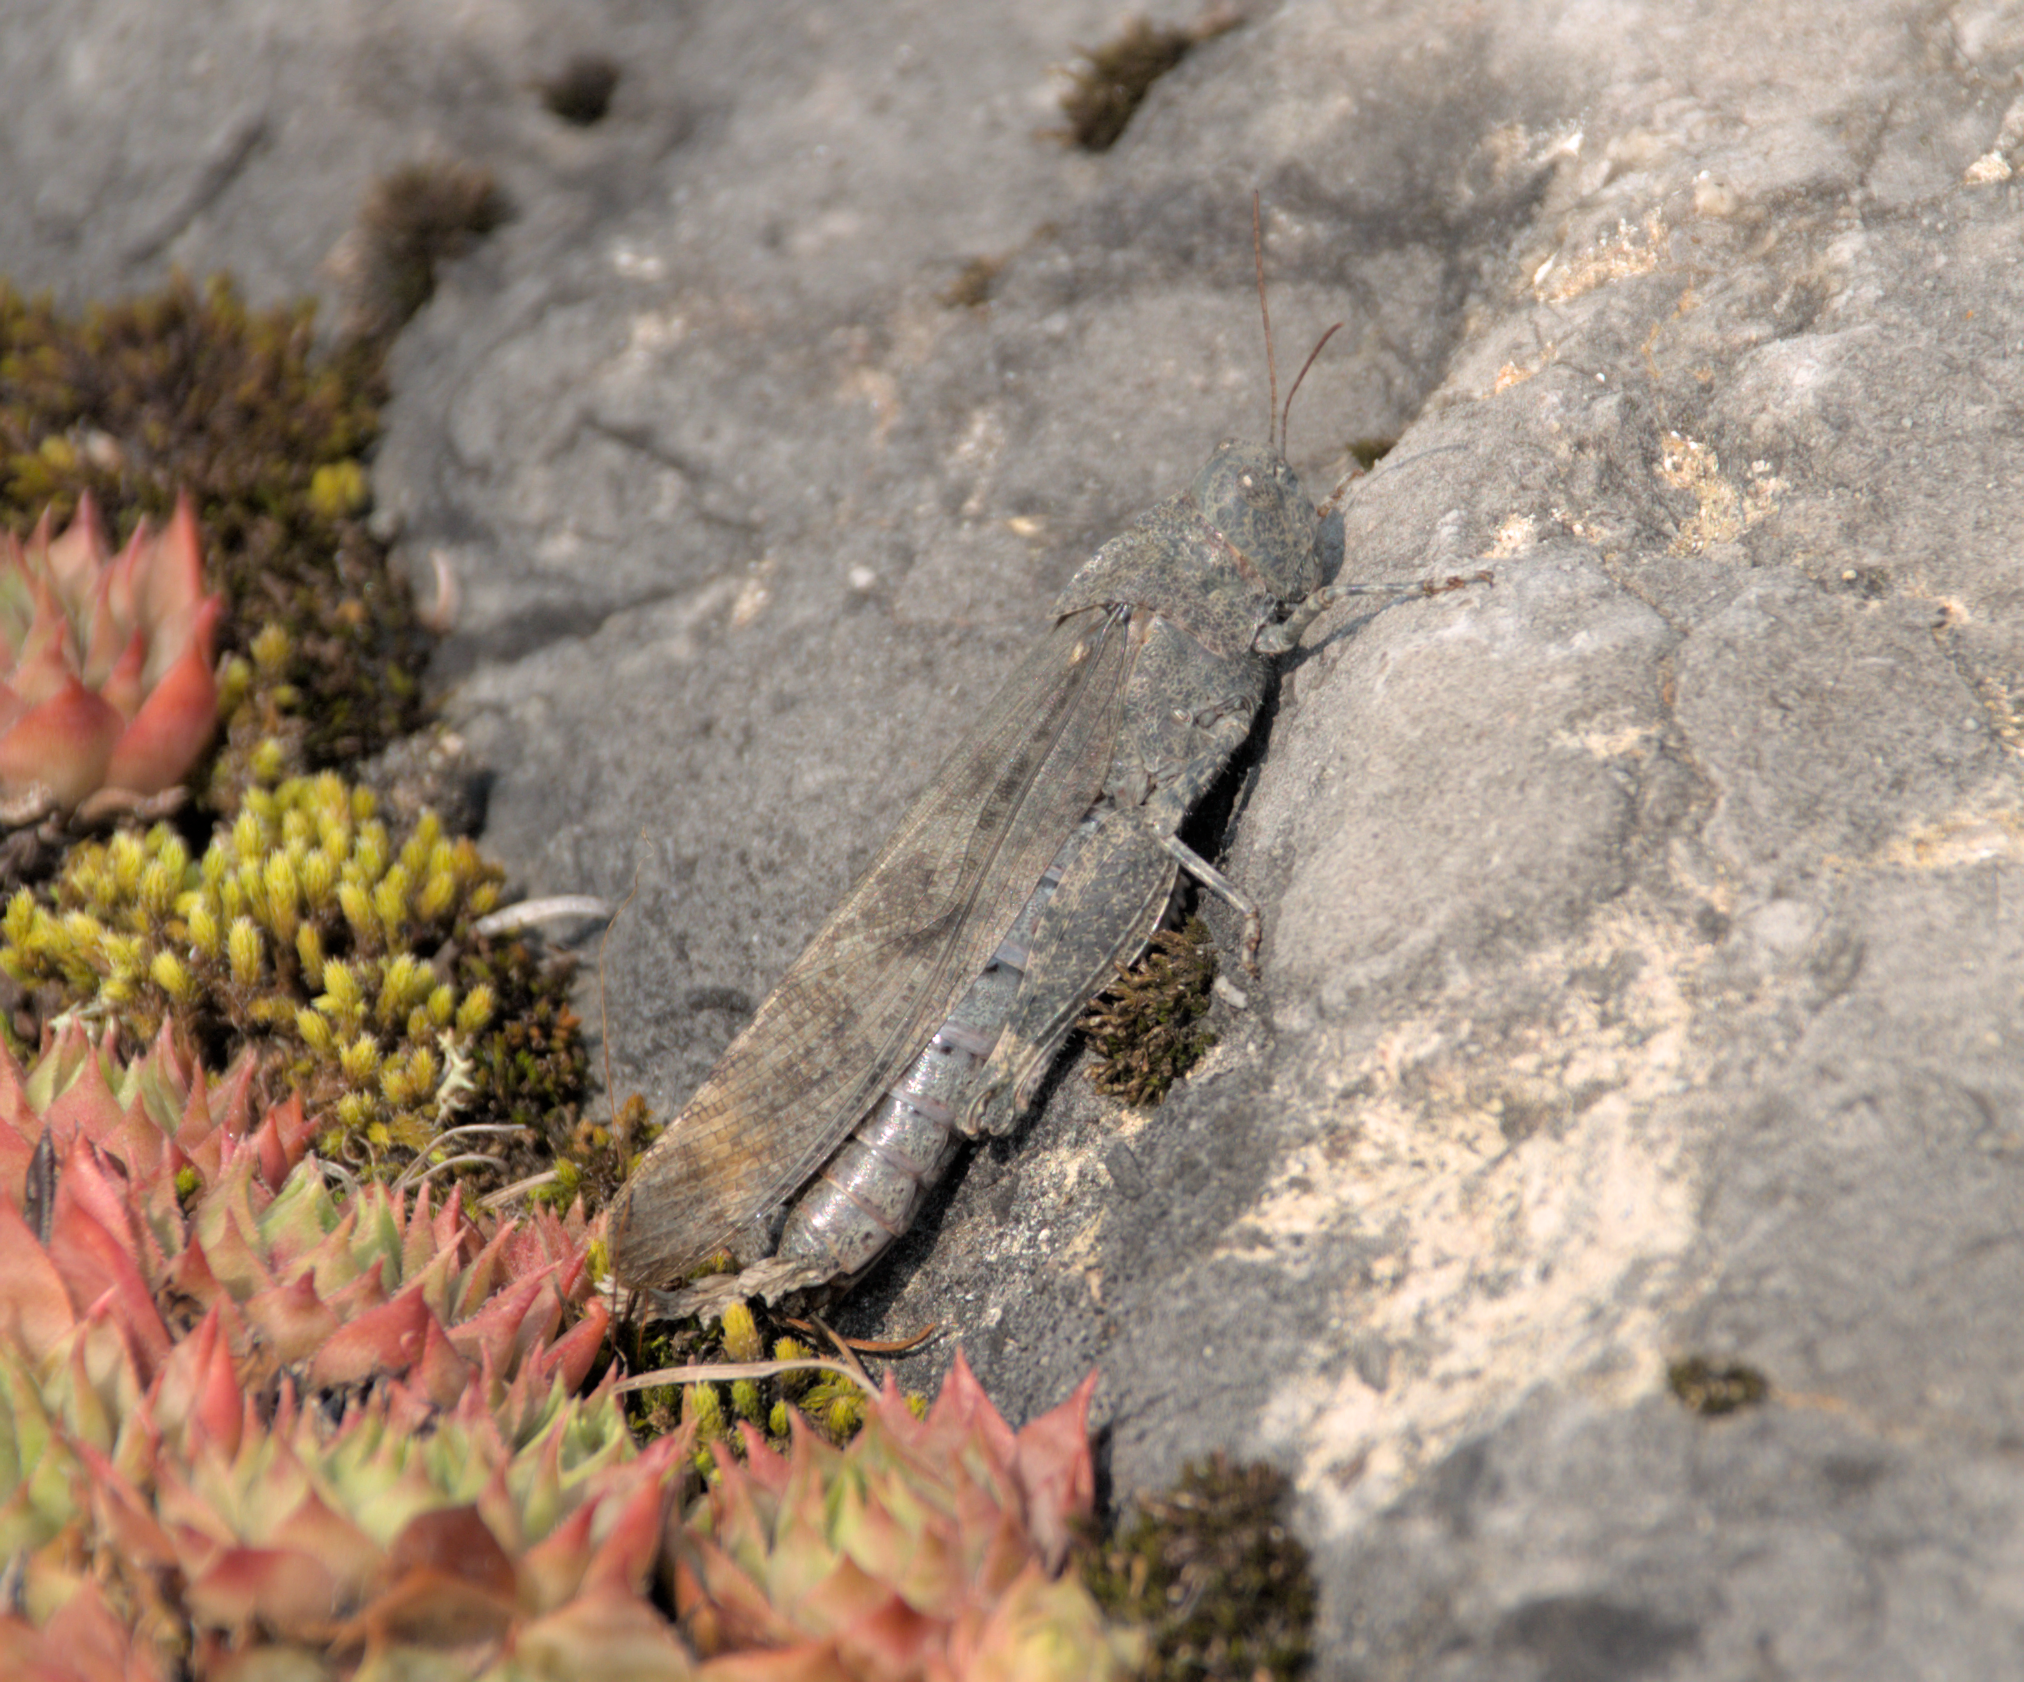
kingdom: Animalia
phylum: Arthropoda
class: Insecta
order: Orthoptera
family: Acrididae
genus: Dissosteira
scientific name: Dissosteira carolina
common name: Carolina grasshopper
